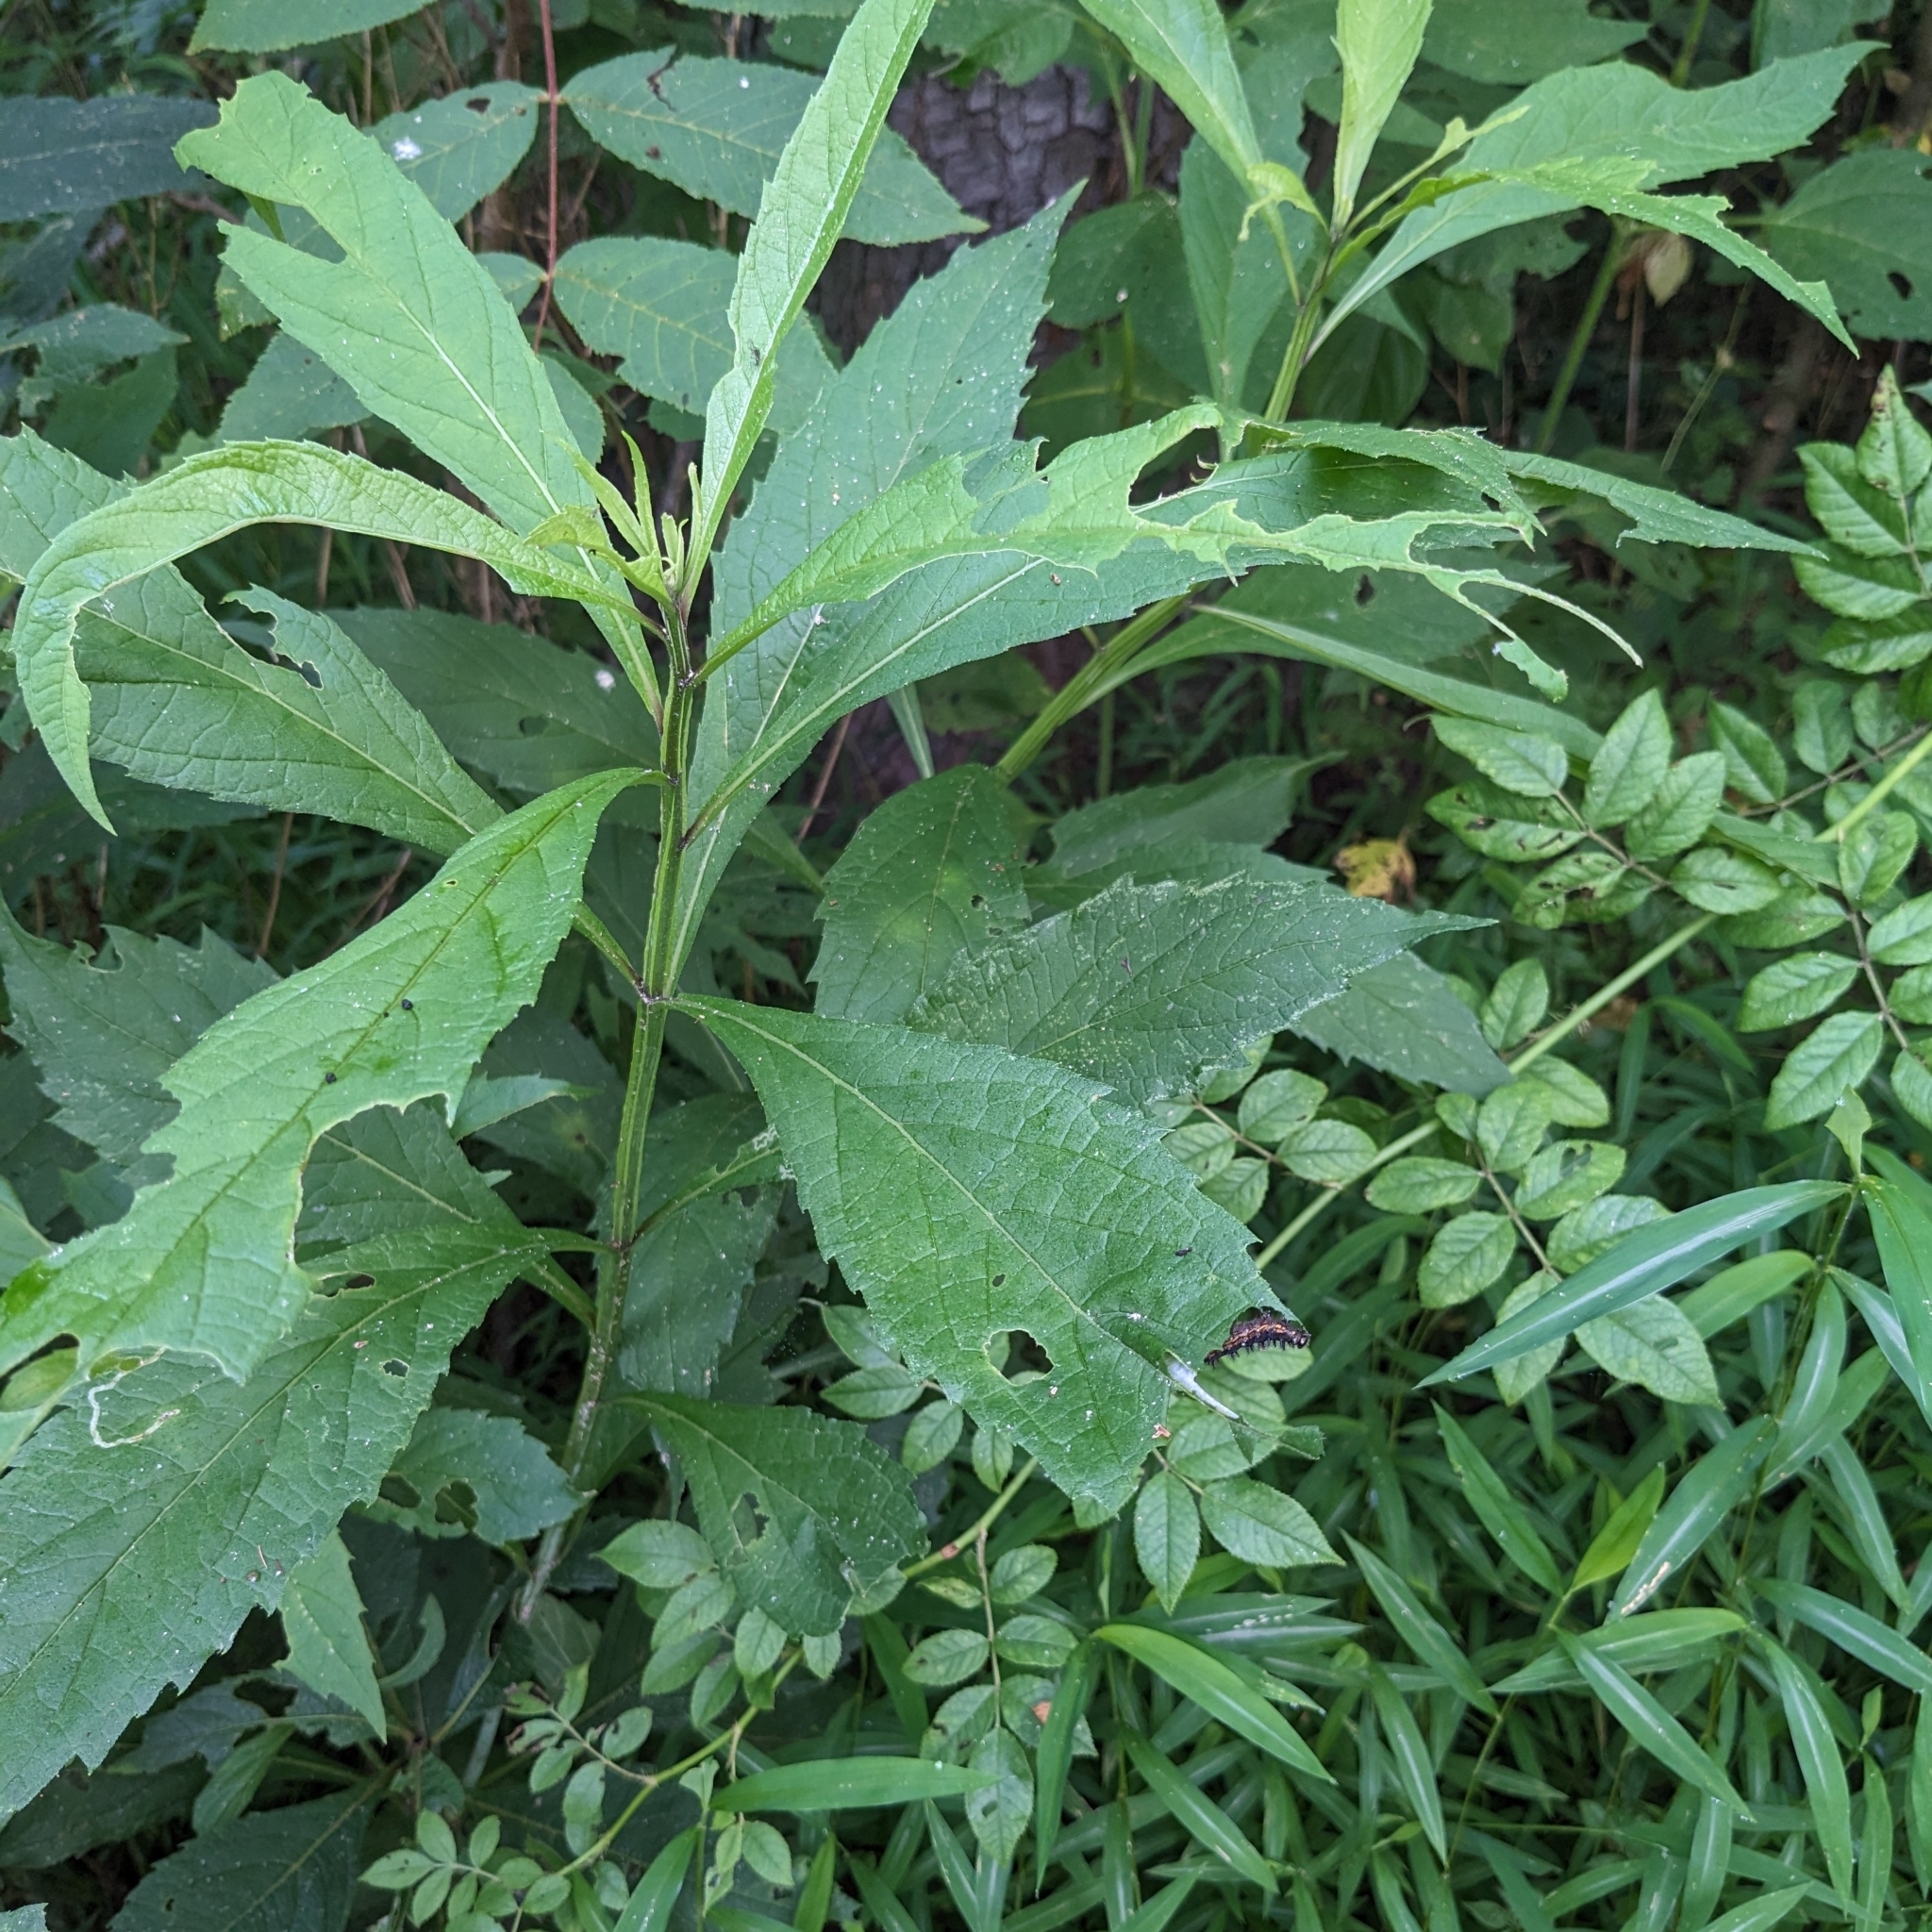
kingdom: Animalia
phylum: Arthropoda
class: Insecta
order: Lepidoptera
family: Nymphalidae
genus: Chlosyne
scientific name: Chlosyne nycteis
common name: Silvery checkerspot
